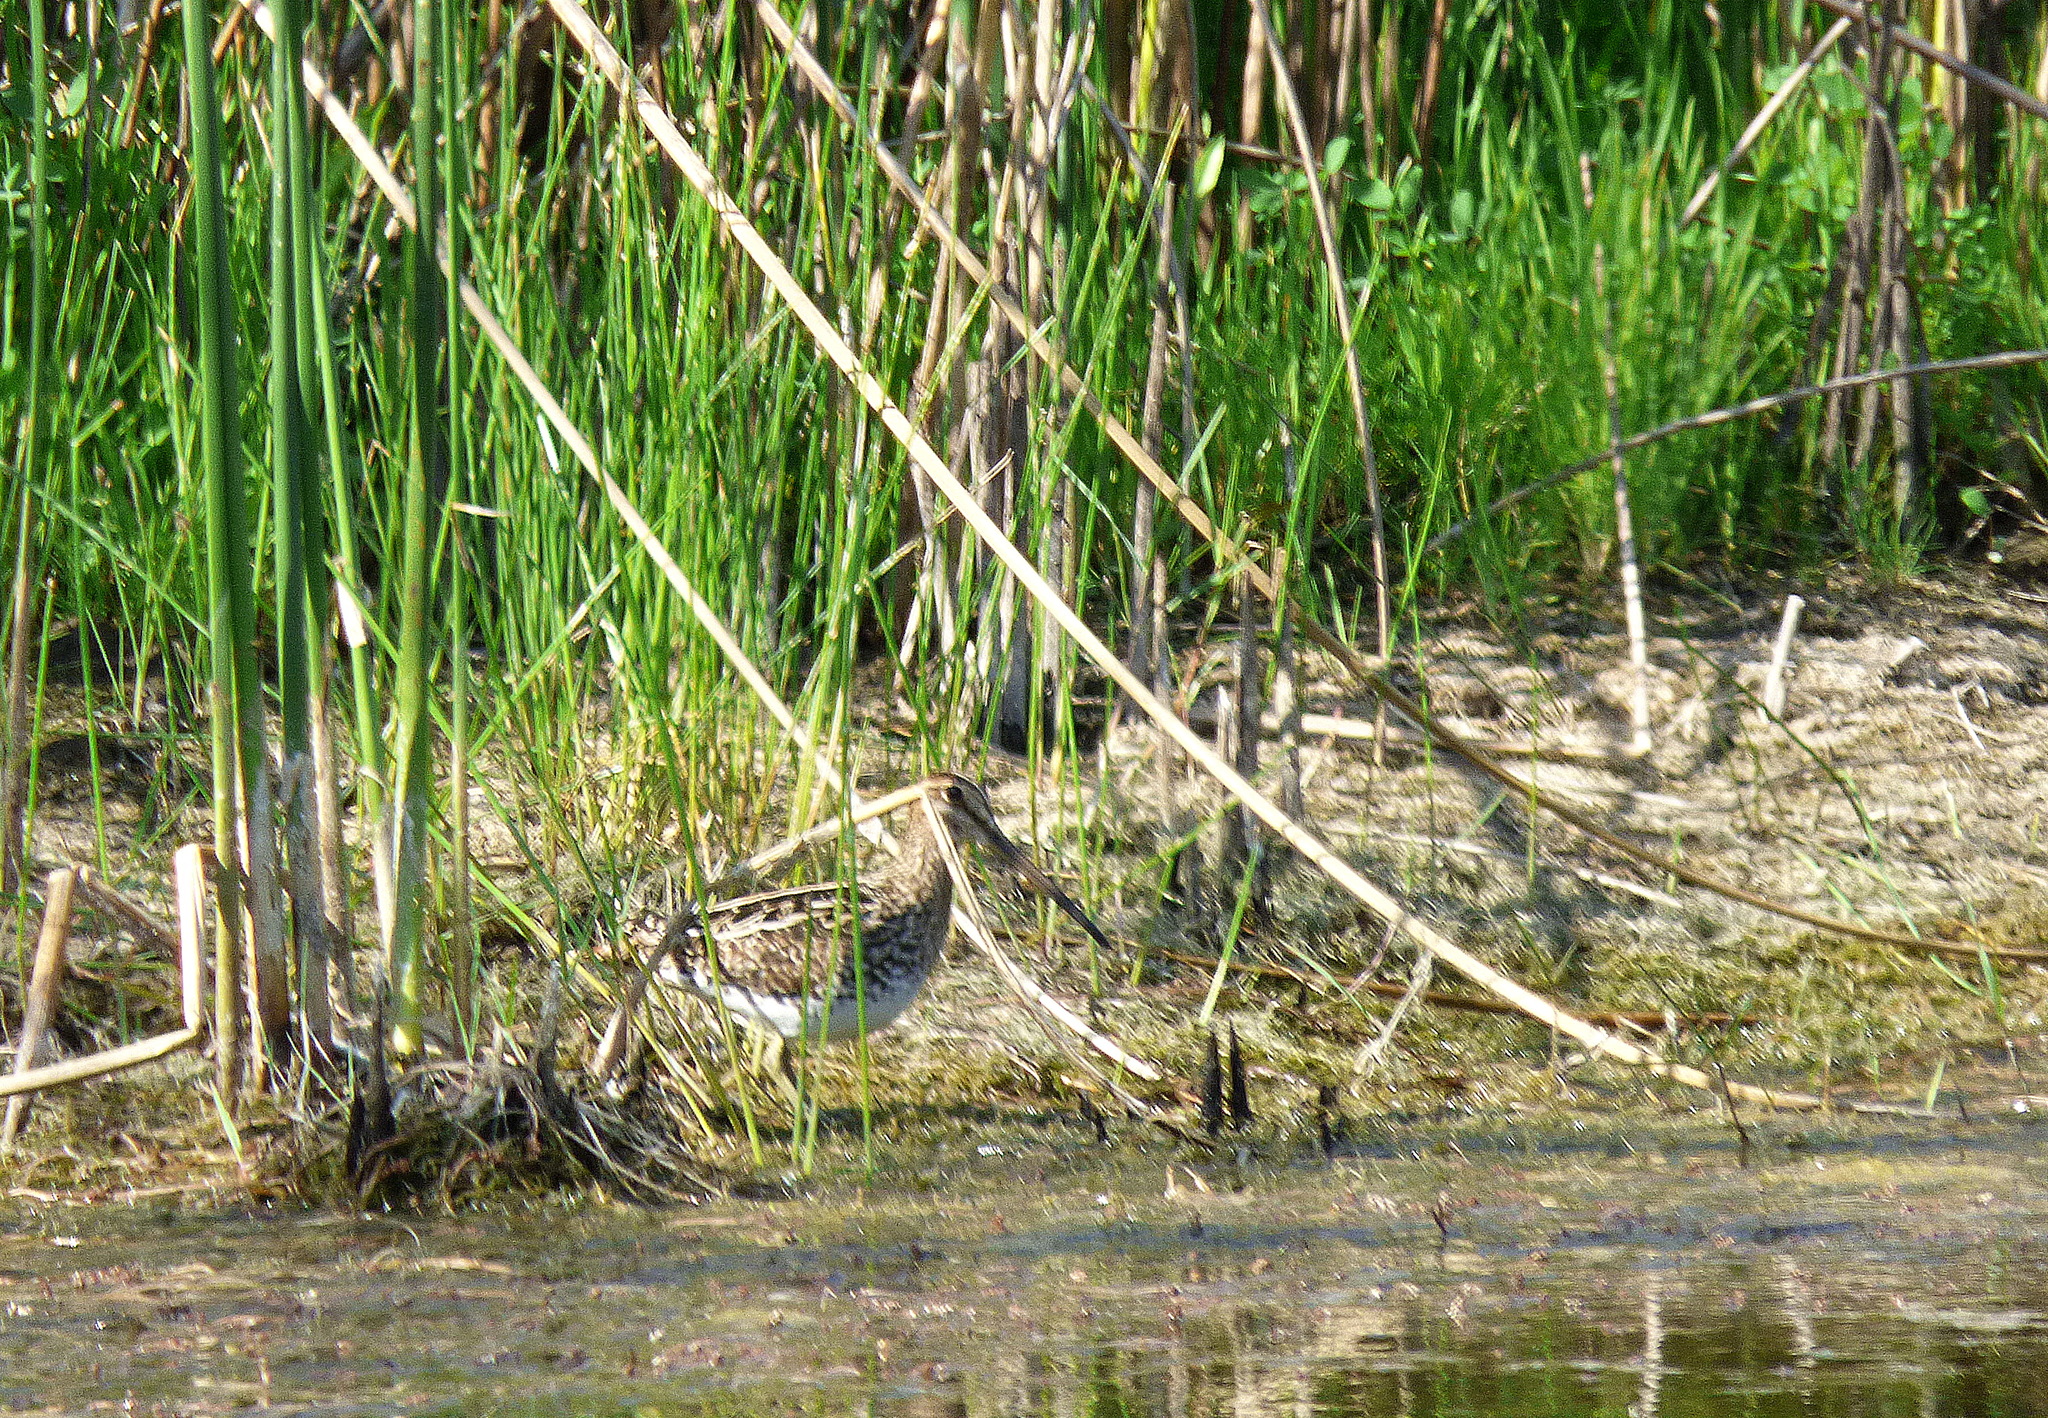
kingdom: Animalia
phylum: Chordata
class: Aves
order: Charadriiformes
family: Scolopacidae
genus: Gallinago
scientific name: Gallinago paraguaiae
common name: South american snipe
